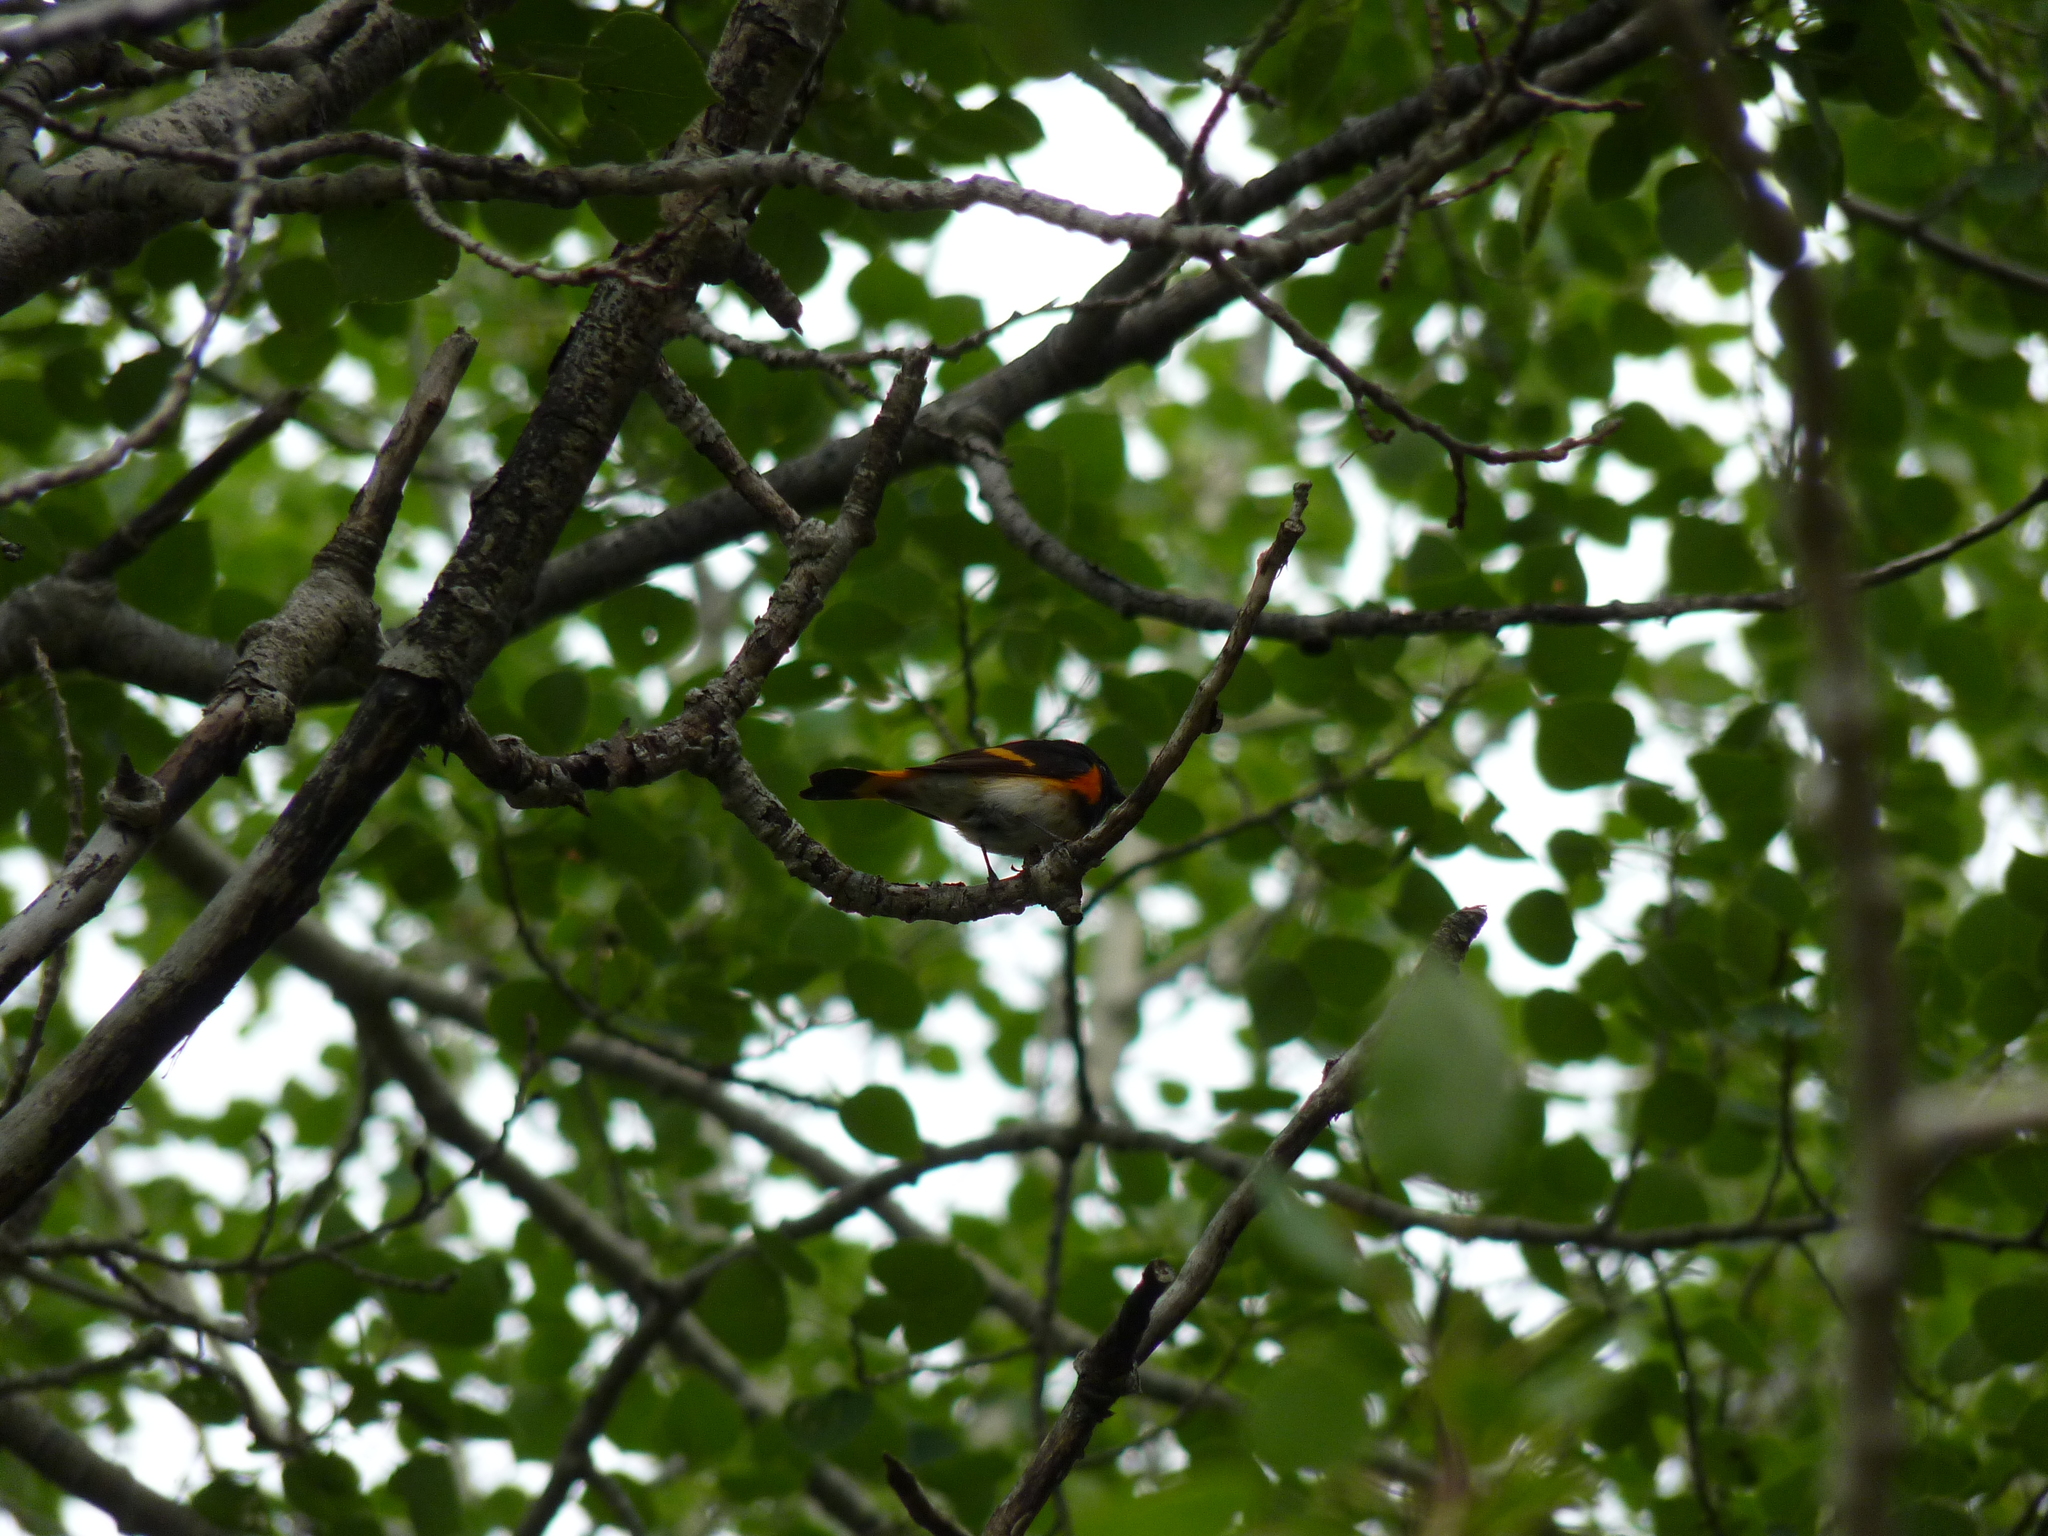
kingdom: Animalia
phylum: Chordata
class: Aves
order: Passeriformes
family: Parulidae
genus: Setophaga
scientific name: Setophaga ruticilla
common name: American redstart
